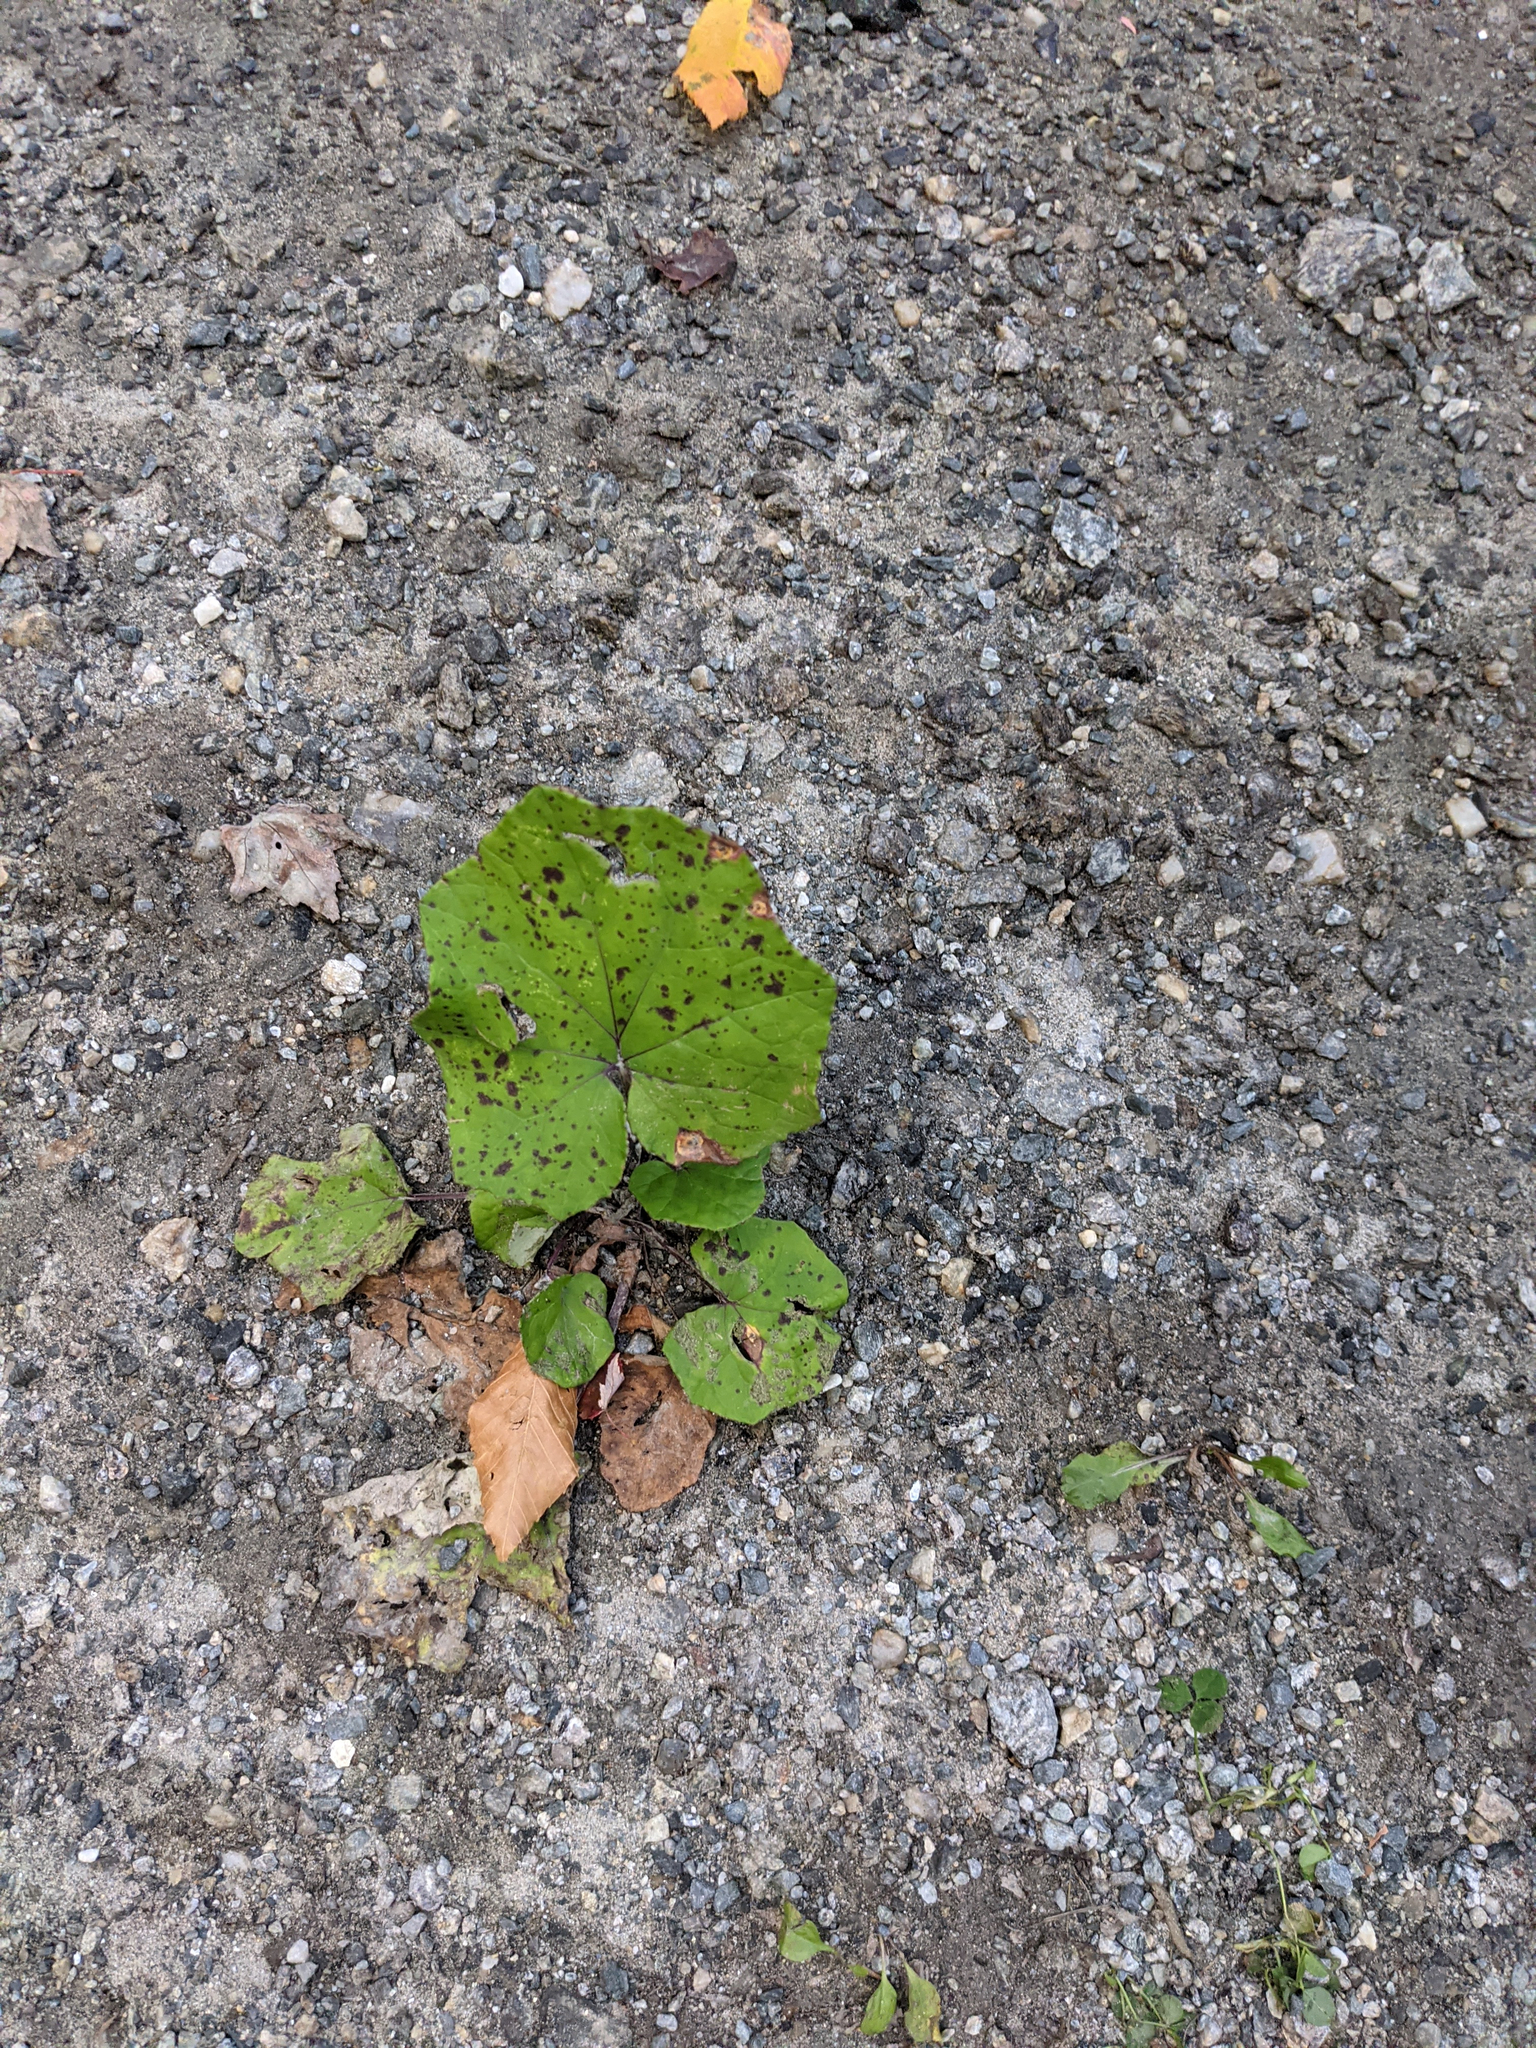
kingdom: Plantae
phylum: Tracheophyta
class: Magnoliopsida
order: Asterales
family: Asteraceae
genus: Tussilago
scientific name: Tussilago farfara
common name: Coltsfoot
